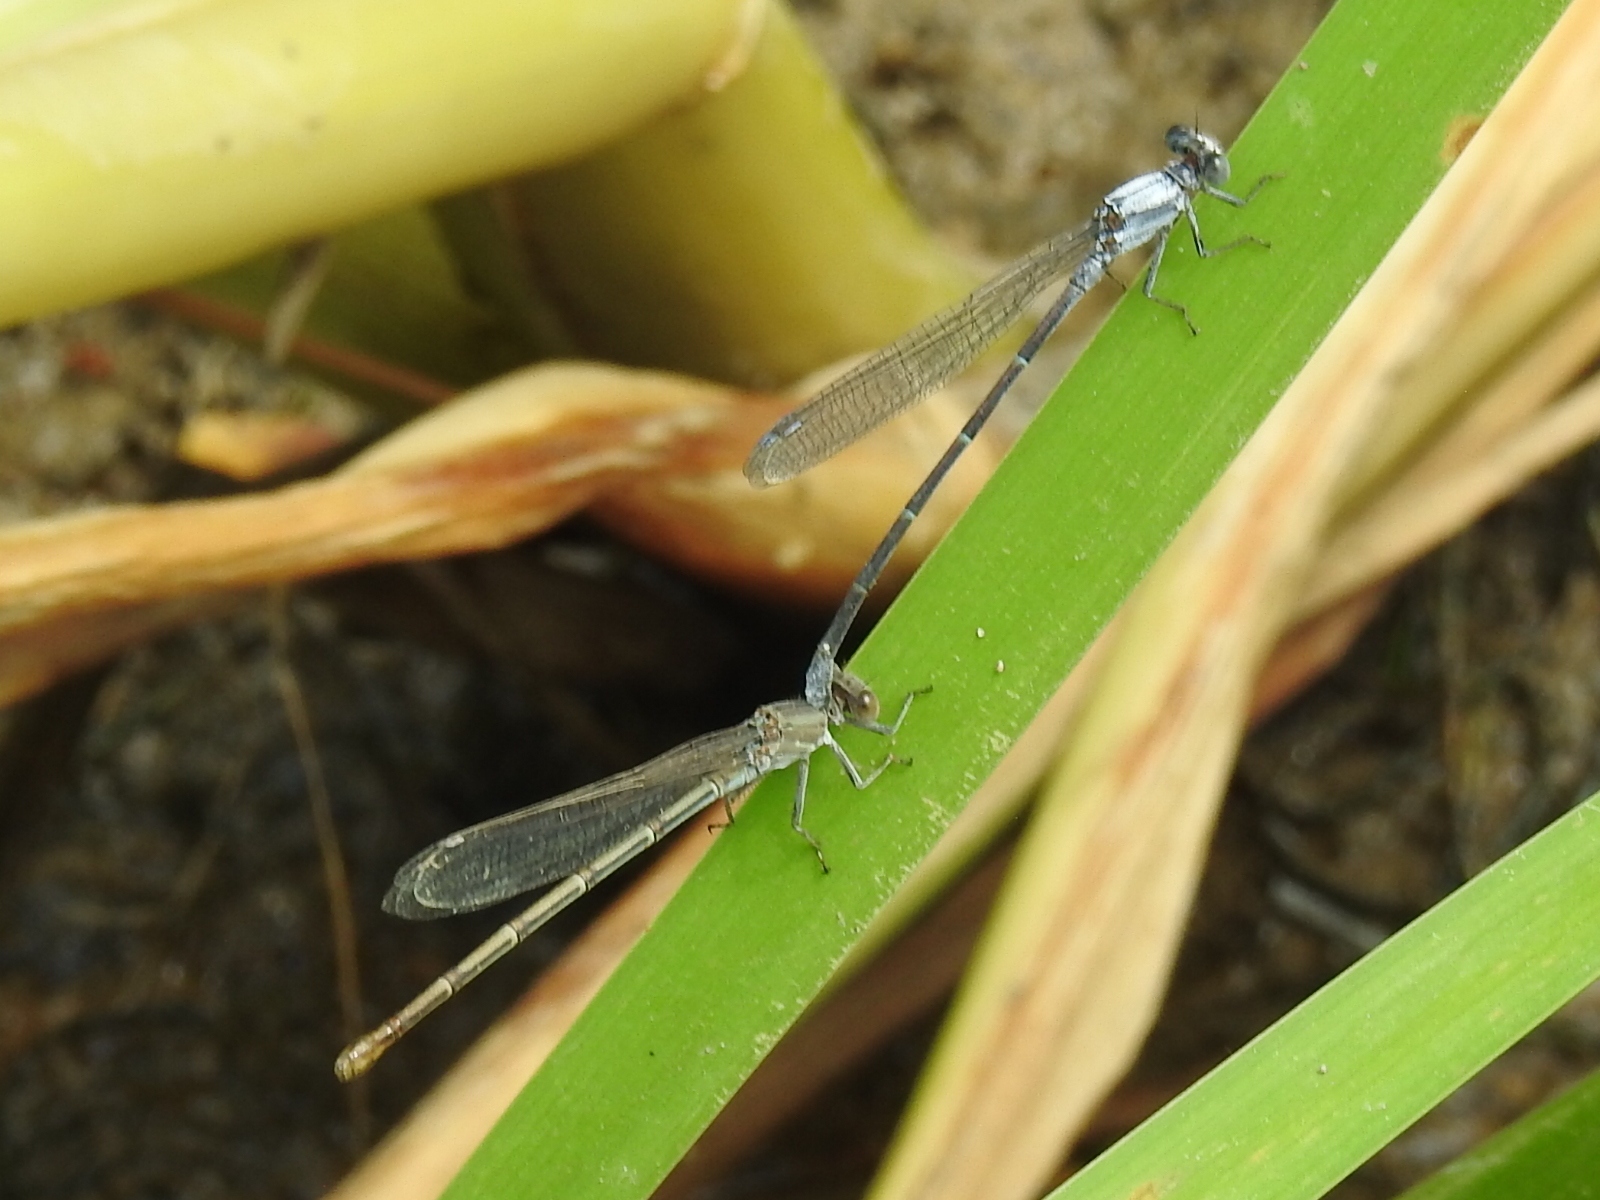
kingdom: Animalia
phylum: Arthropoda
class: Insecta
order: Odonata
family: Coenagrionidae
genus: Argia
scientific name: Argia moesta
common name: Powdered dancer
